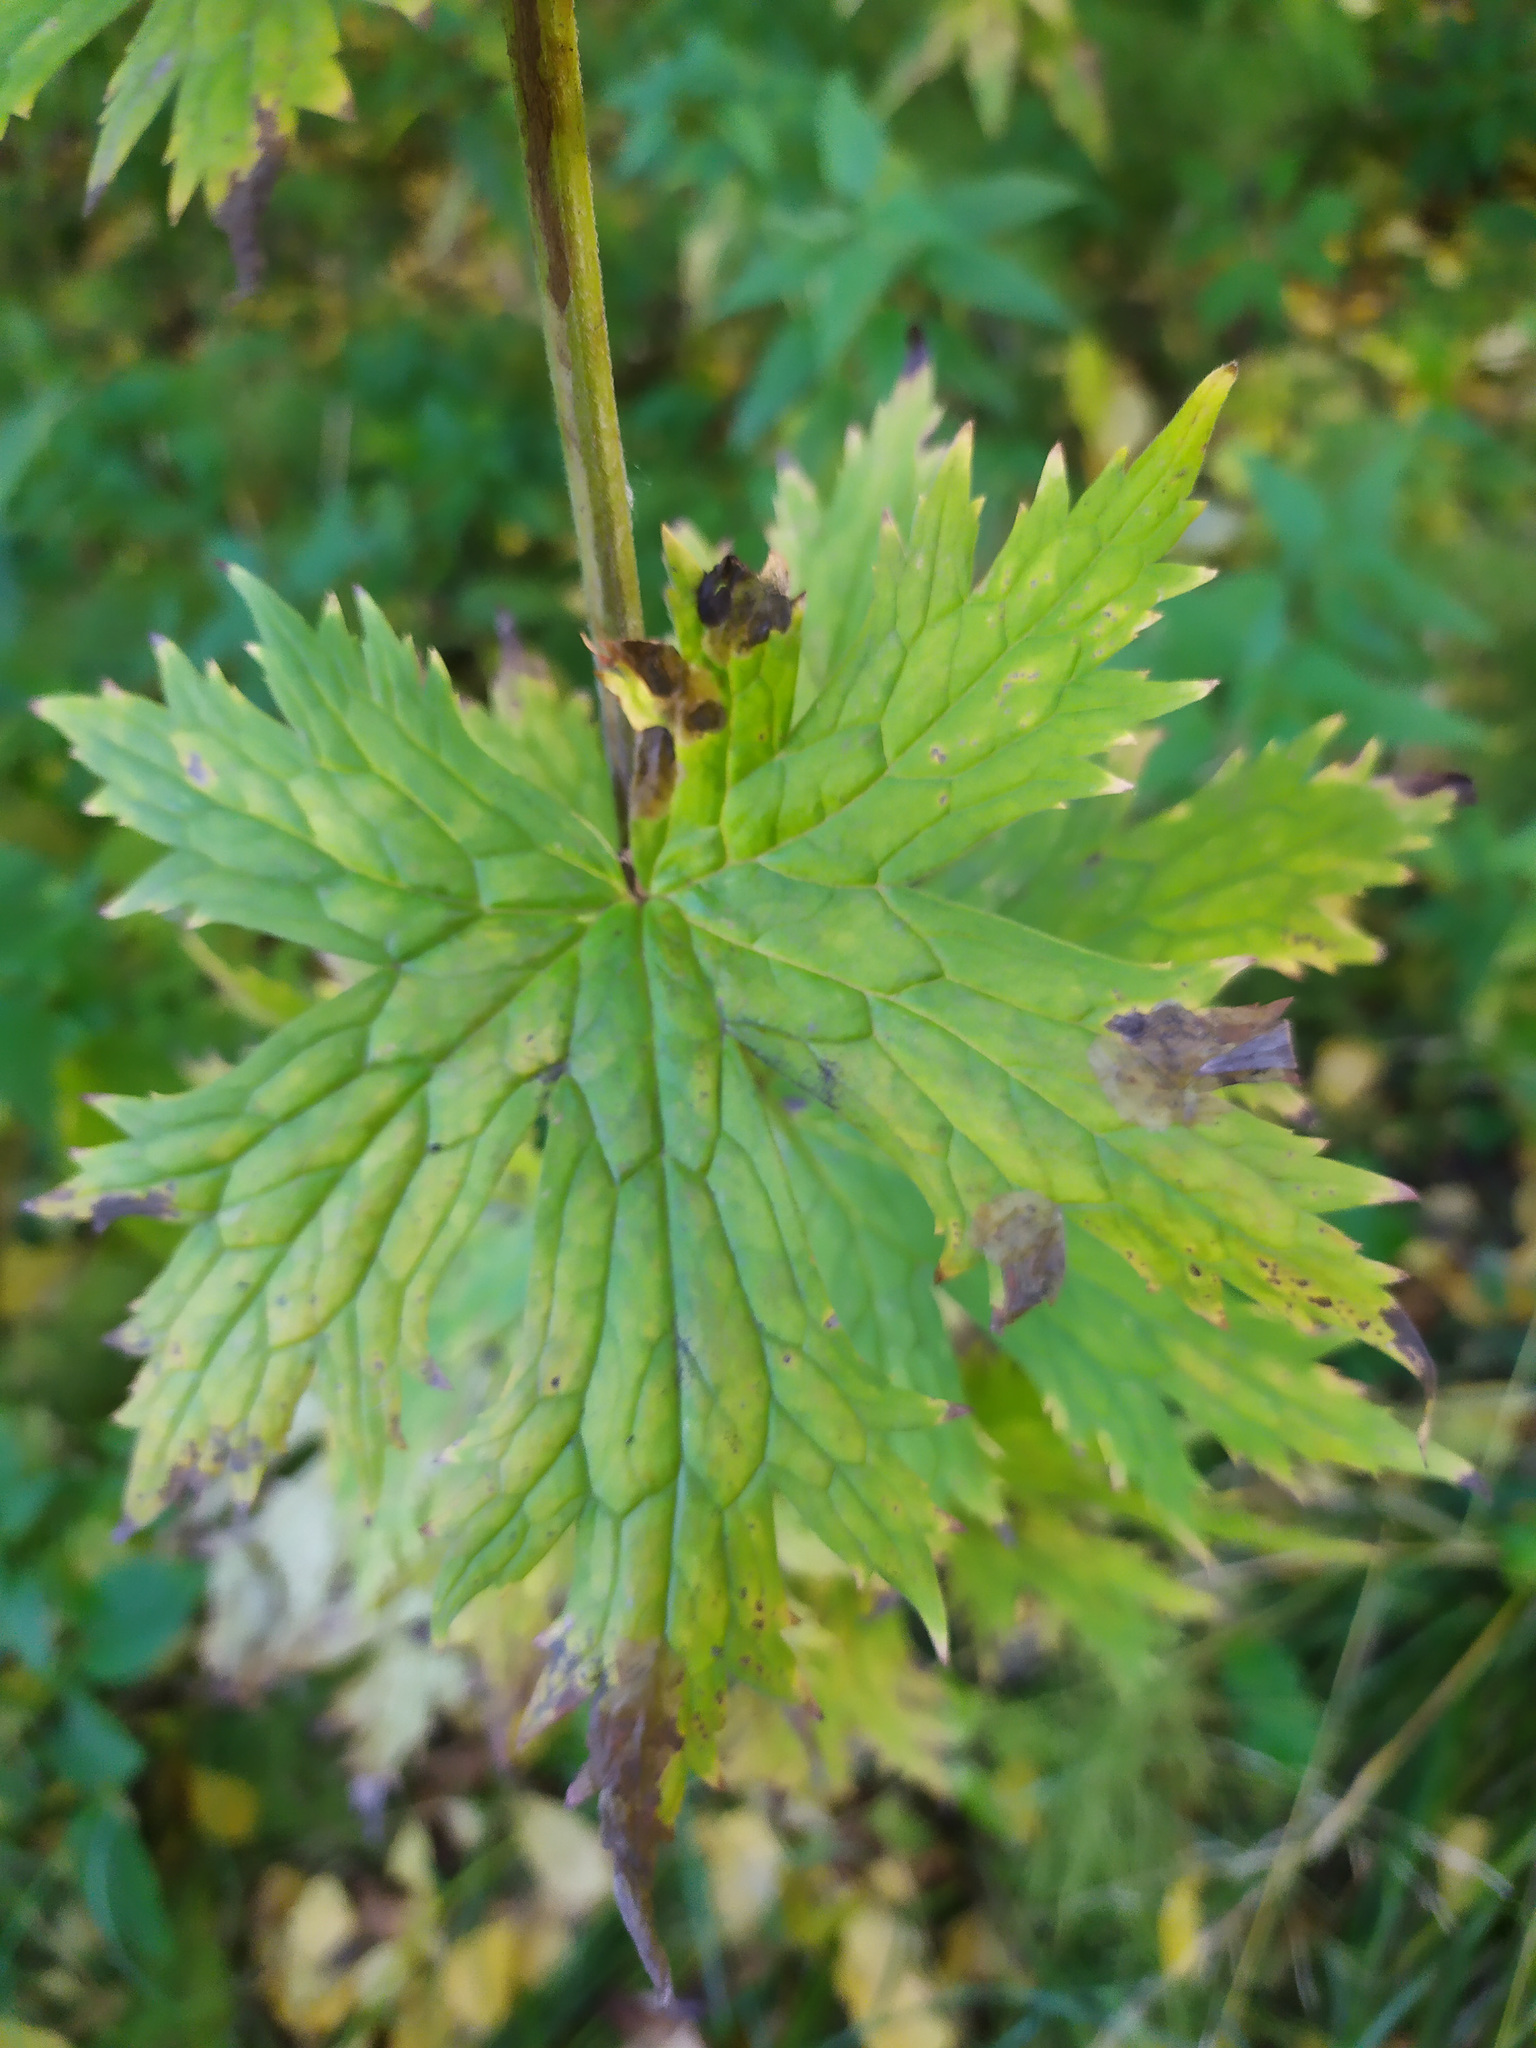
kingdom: Plantae
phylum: Tracheophyta
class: Magnoliopsida
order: Ranunculales
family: Ranunculaceae
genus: Aconitum
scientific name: Aconitum septentrionale
